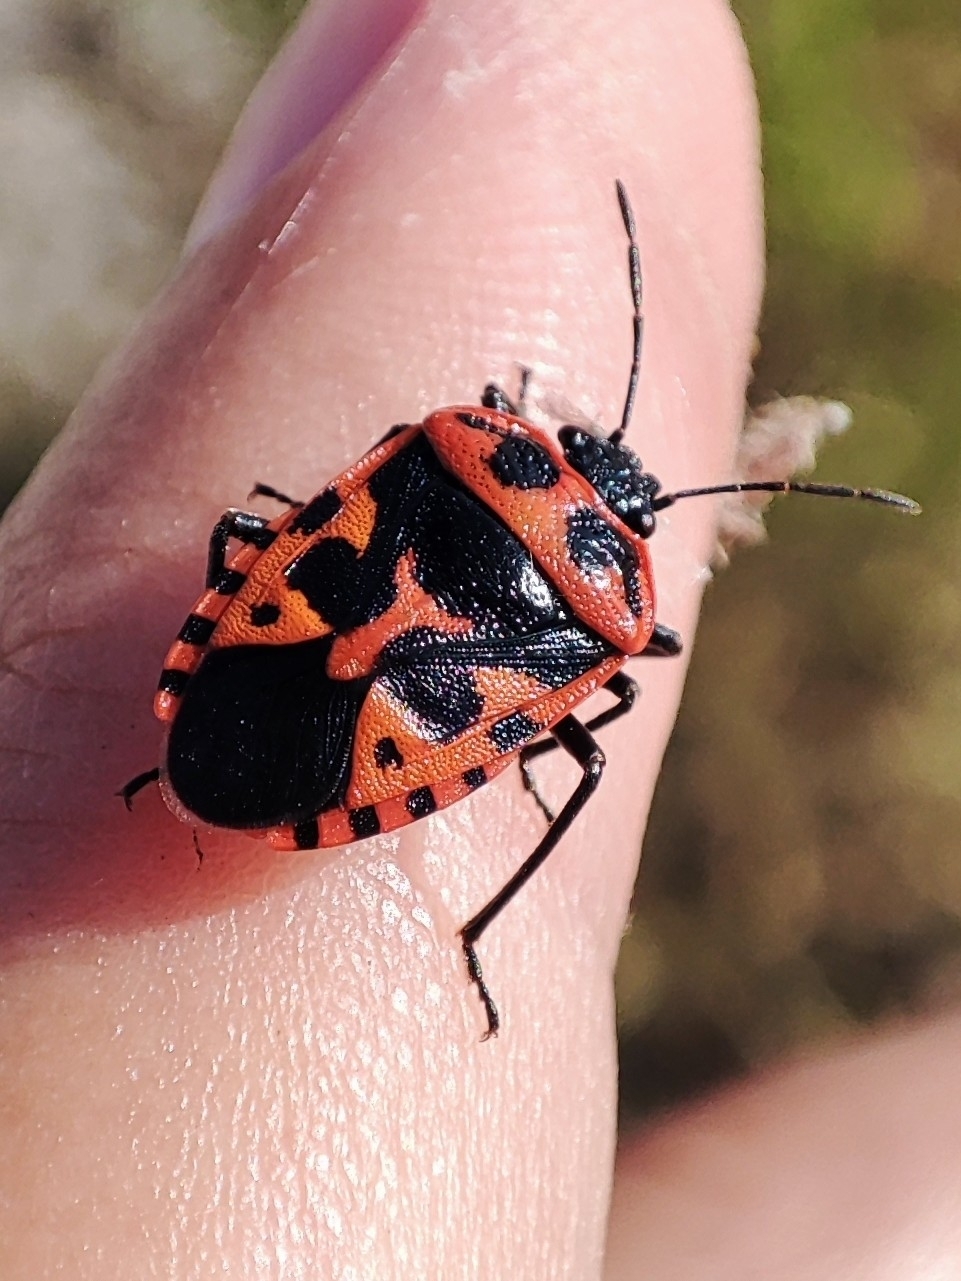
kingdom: Animalia
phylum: Arthropoda
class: Insecta
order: Hemiptera
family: Pentatomidae
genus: Eurydema
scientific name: Eurydema spectabilis
